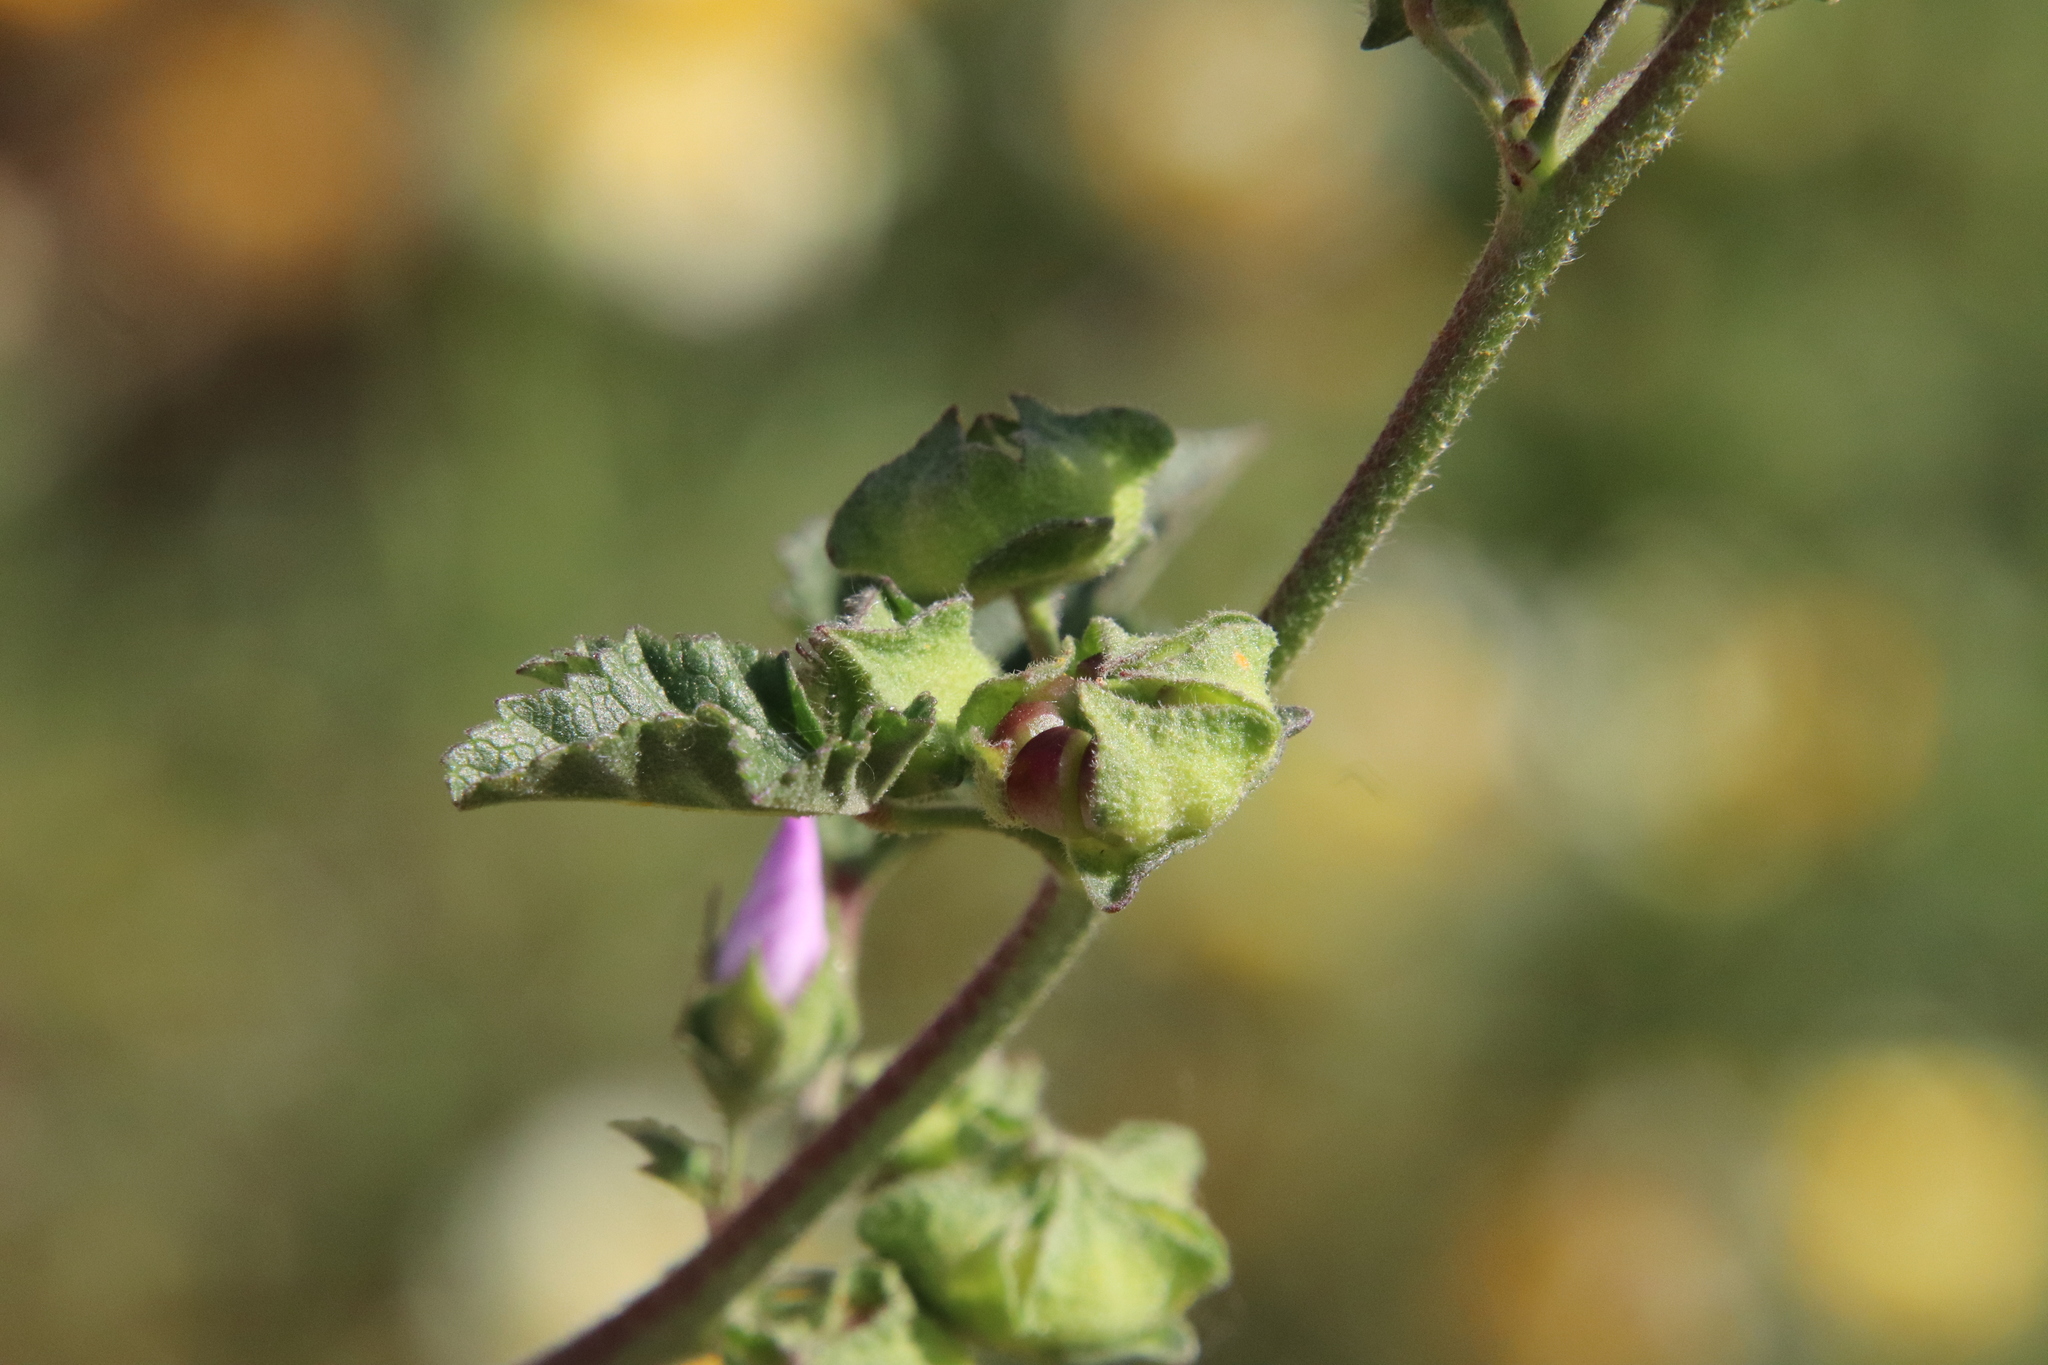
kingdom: Plantae
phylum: Tracheophyta
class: Magnoliopsida
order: Malvales
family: Malvaceae
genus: Malva
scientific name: Malva multiflora
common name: Cheeseweed
